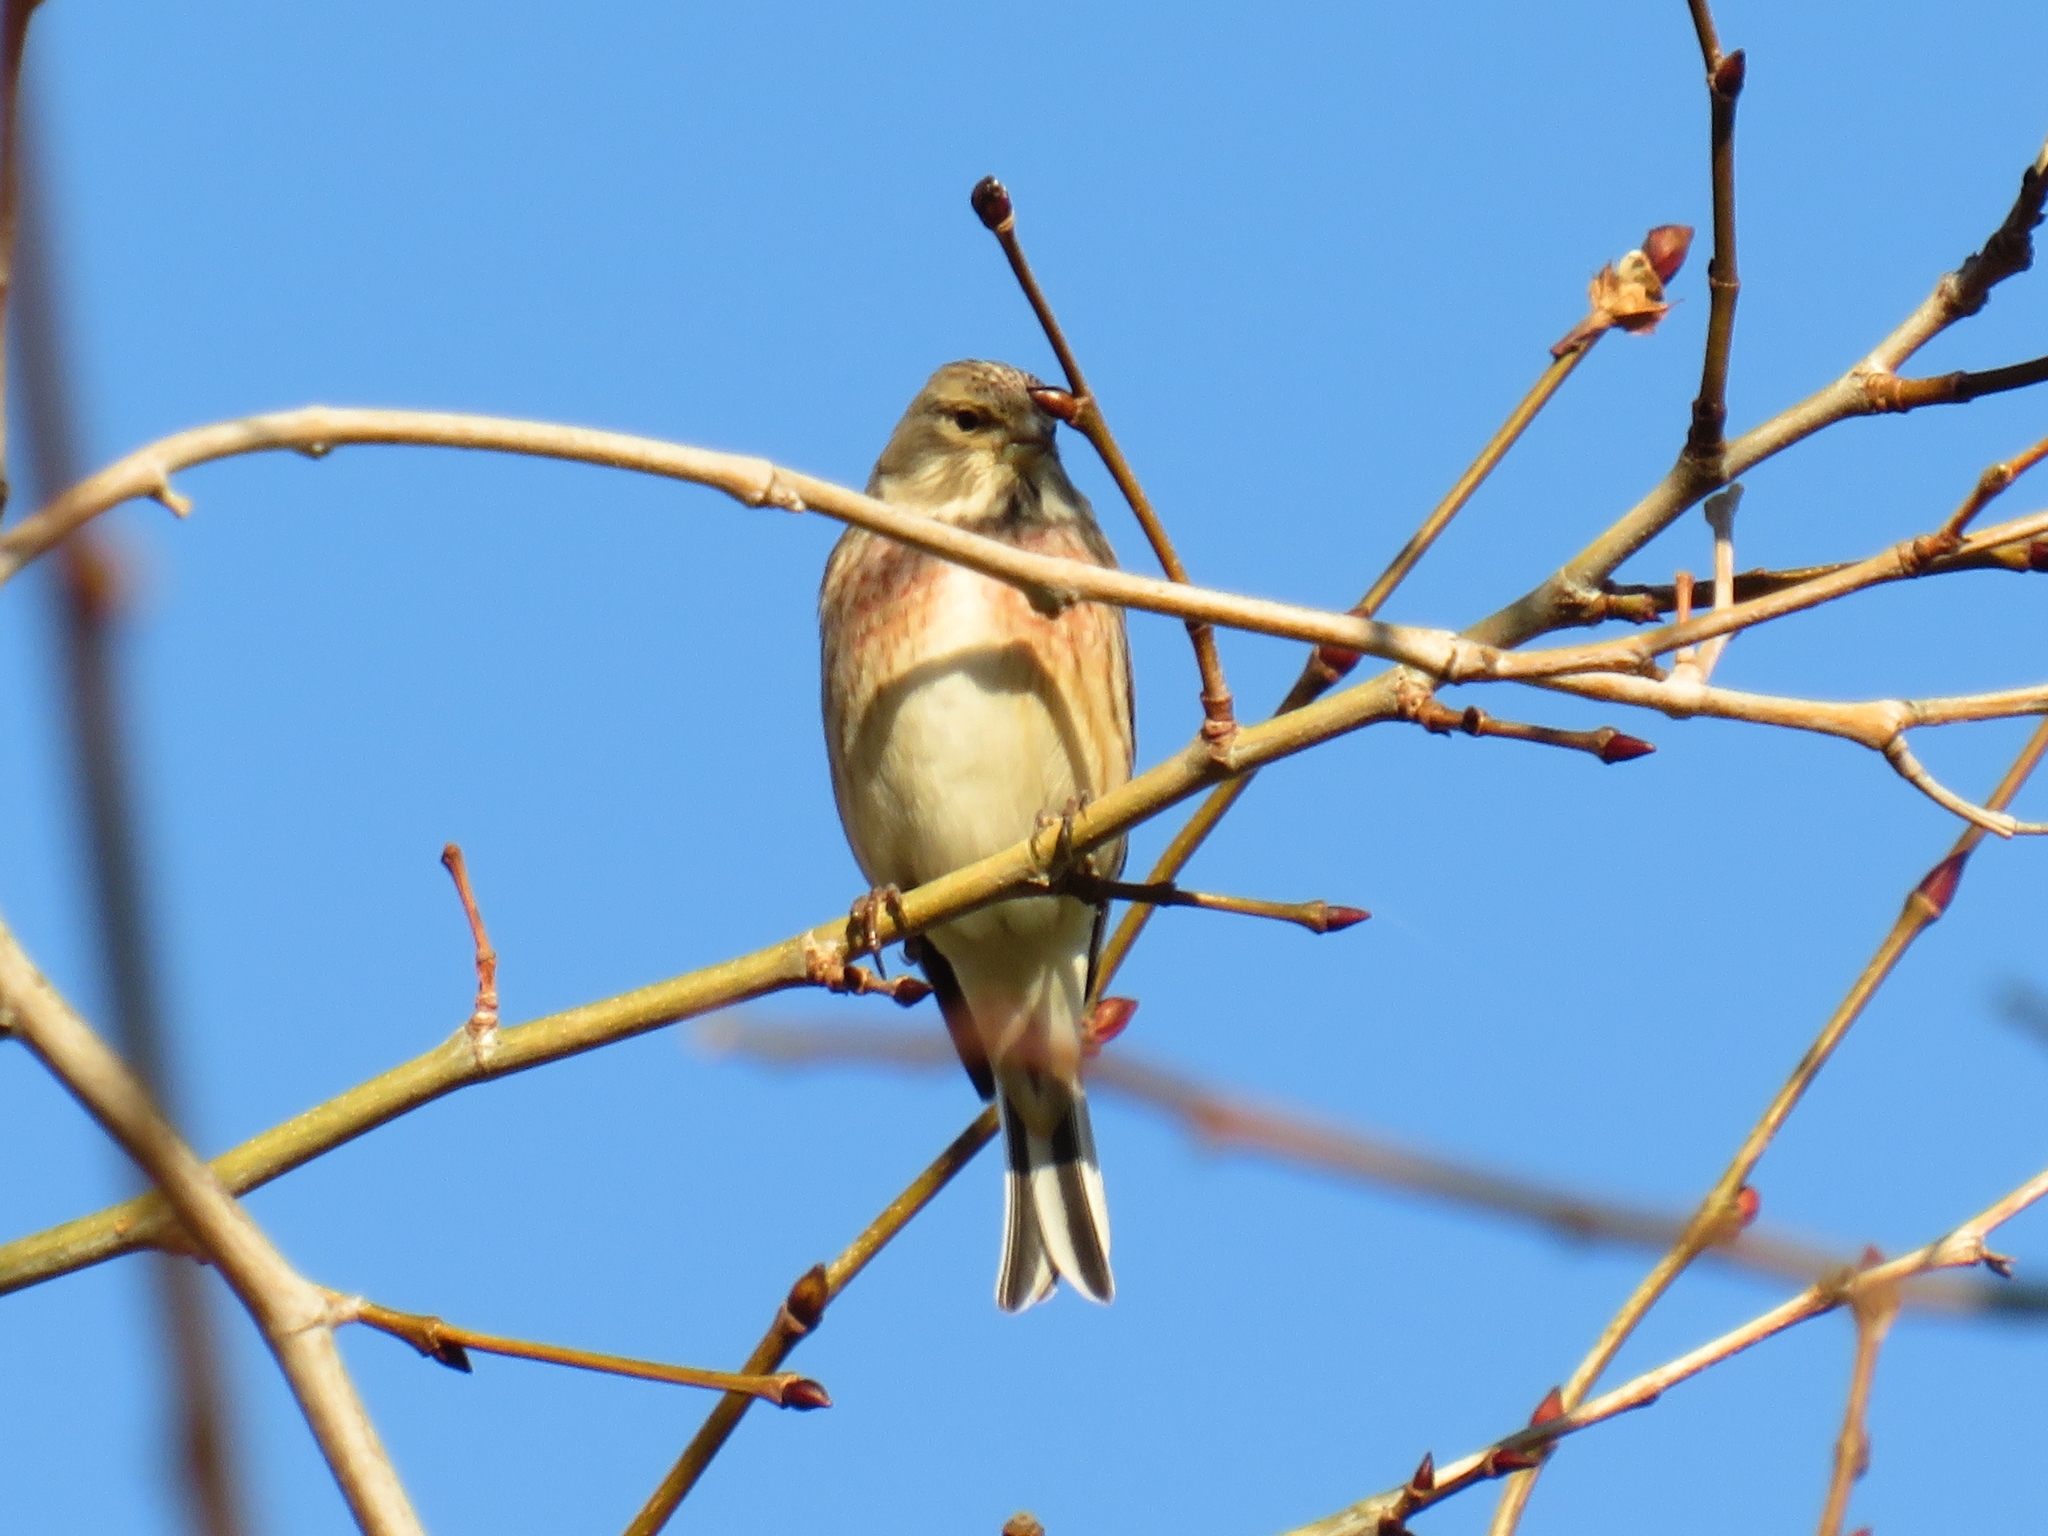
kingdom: Animalia
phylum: Chordata
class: Aves
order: Passeriformes
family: Fringillidae
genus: Linaria
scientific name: Linaria cannabina
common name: Common linnet
